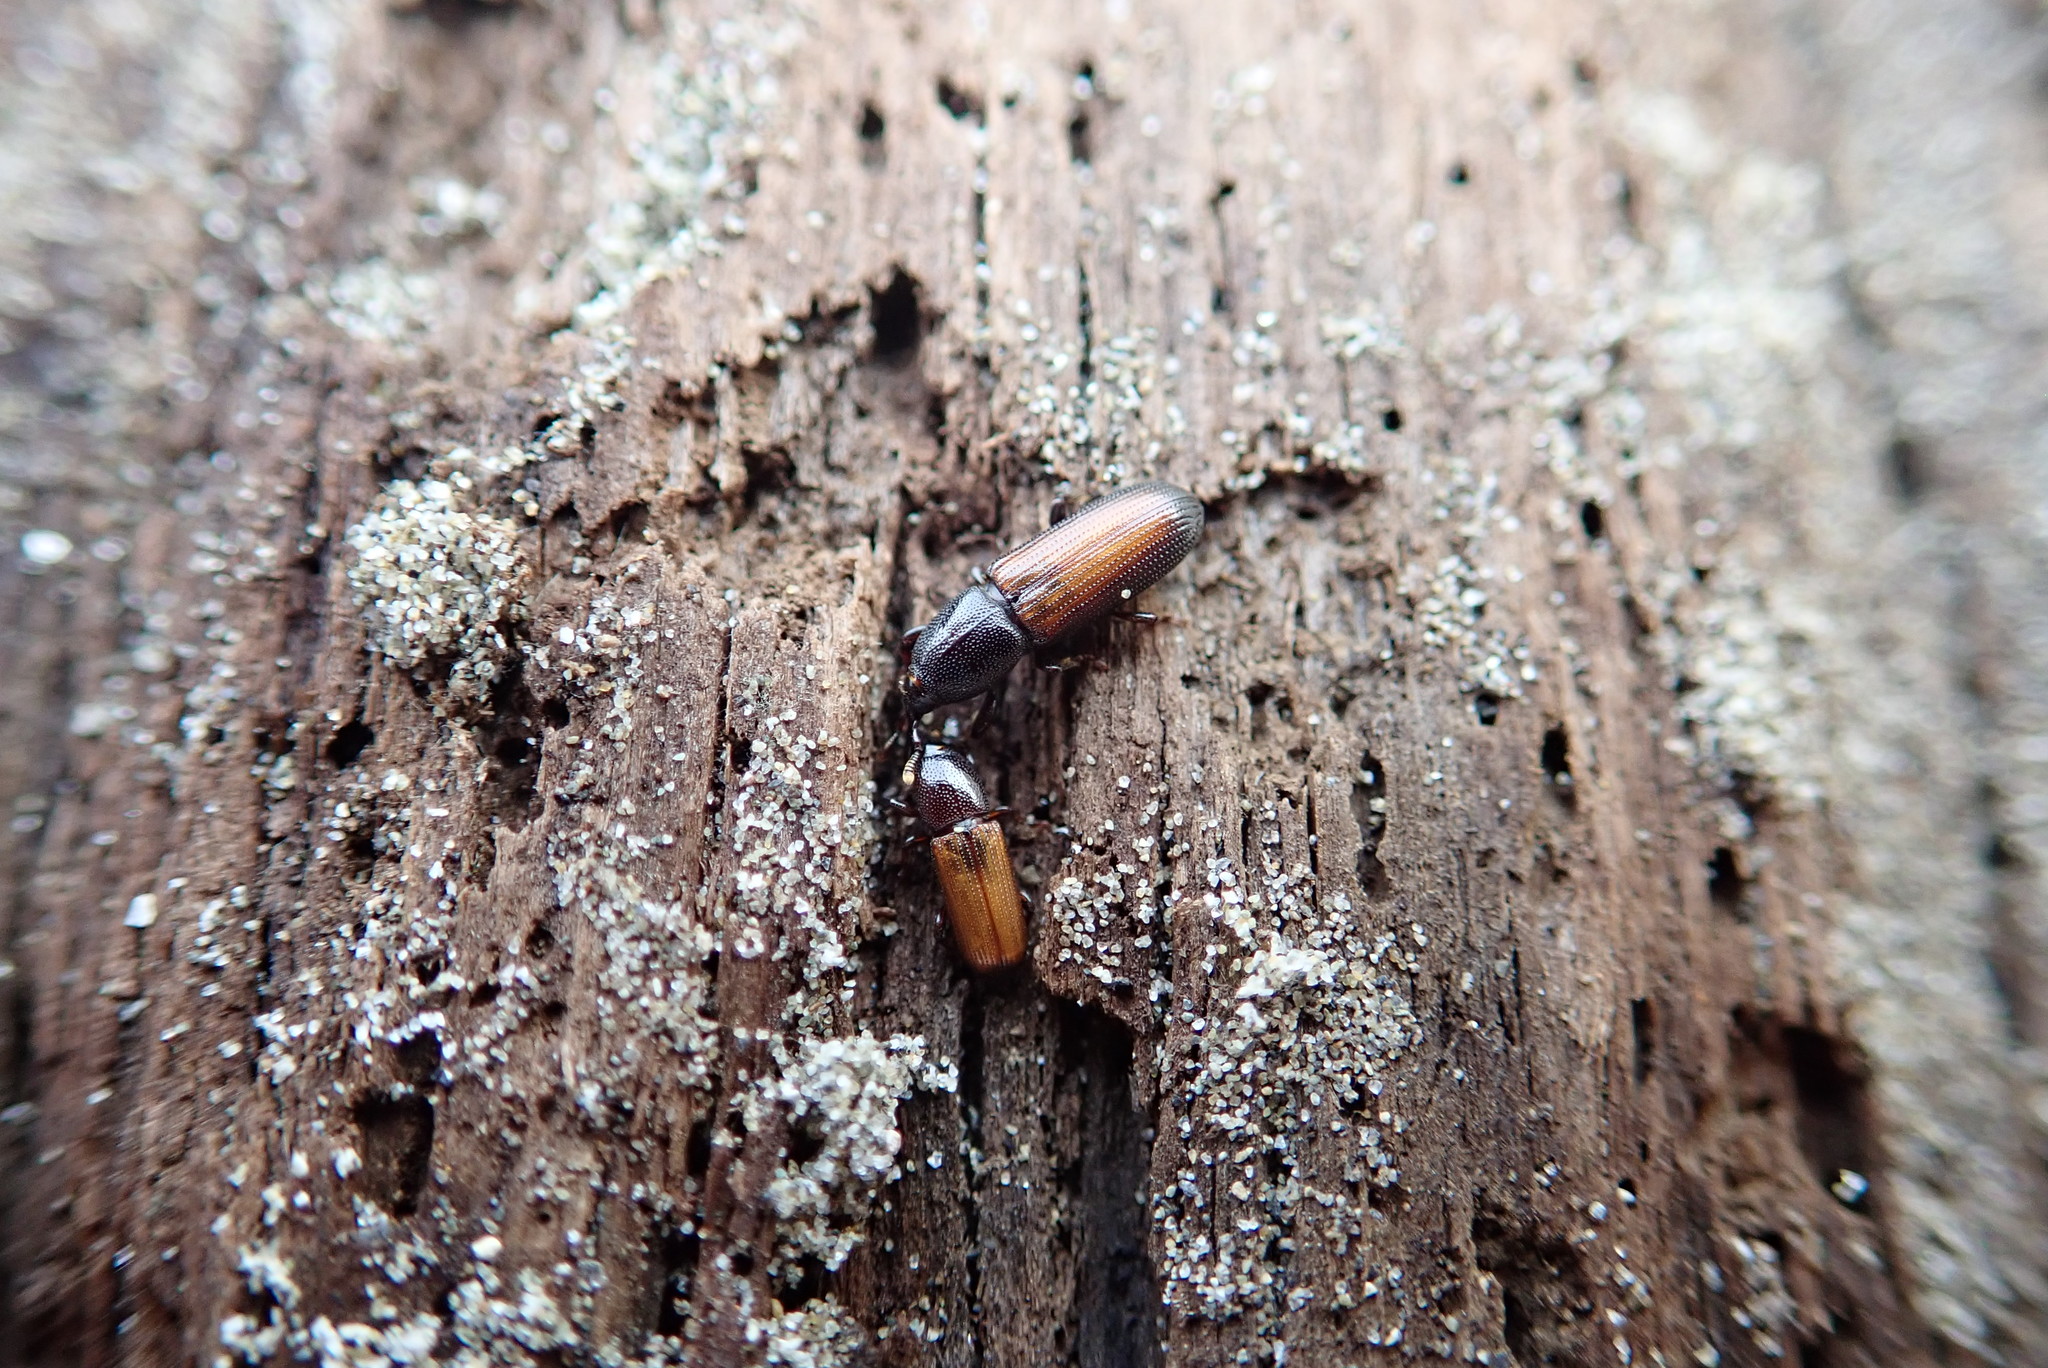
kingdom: Animalia
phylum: Arthropoda
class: Insecta
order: Coleoptera
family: Curculionidae
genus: Mesites
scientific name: Mesites pallidipennis
